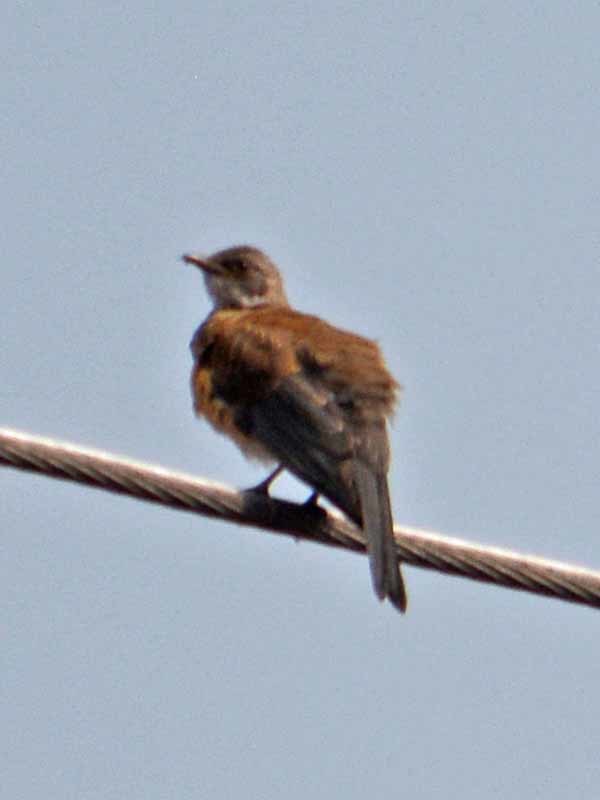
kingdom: Animalia
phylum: Chordata
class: Aves
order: Passeriformes
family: Turdidae
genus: Turdus
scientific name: Turdus rufopalliatus
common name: Rufous-backed robin
